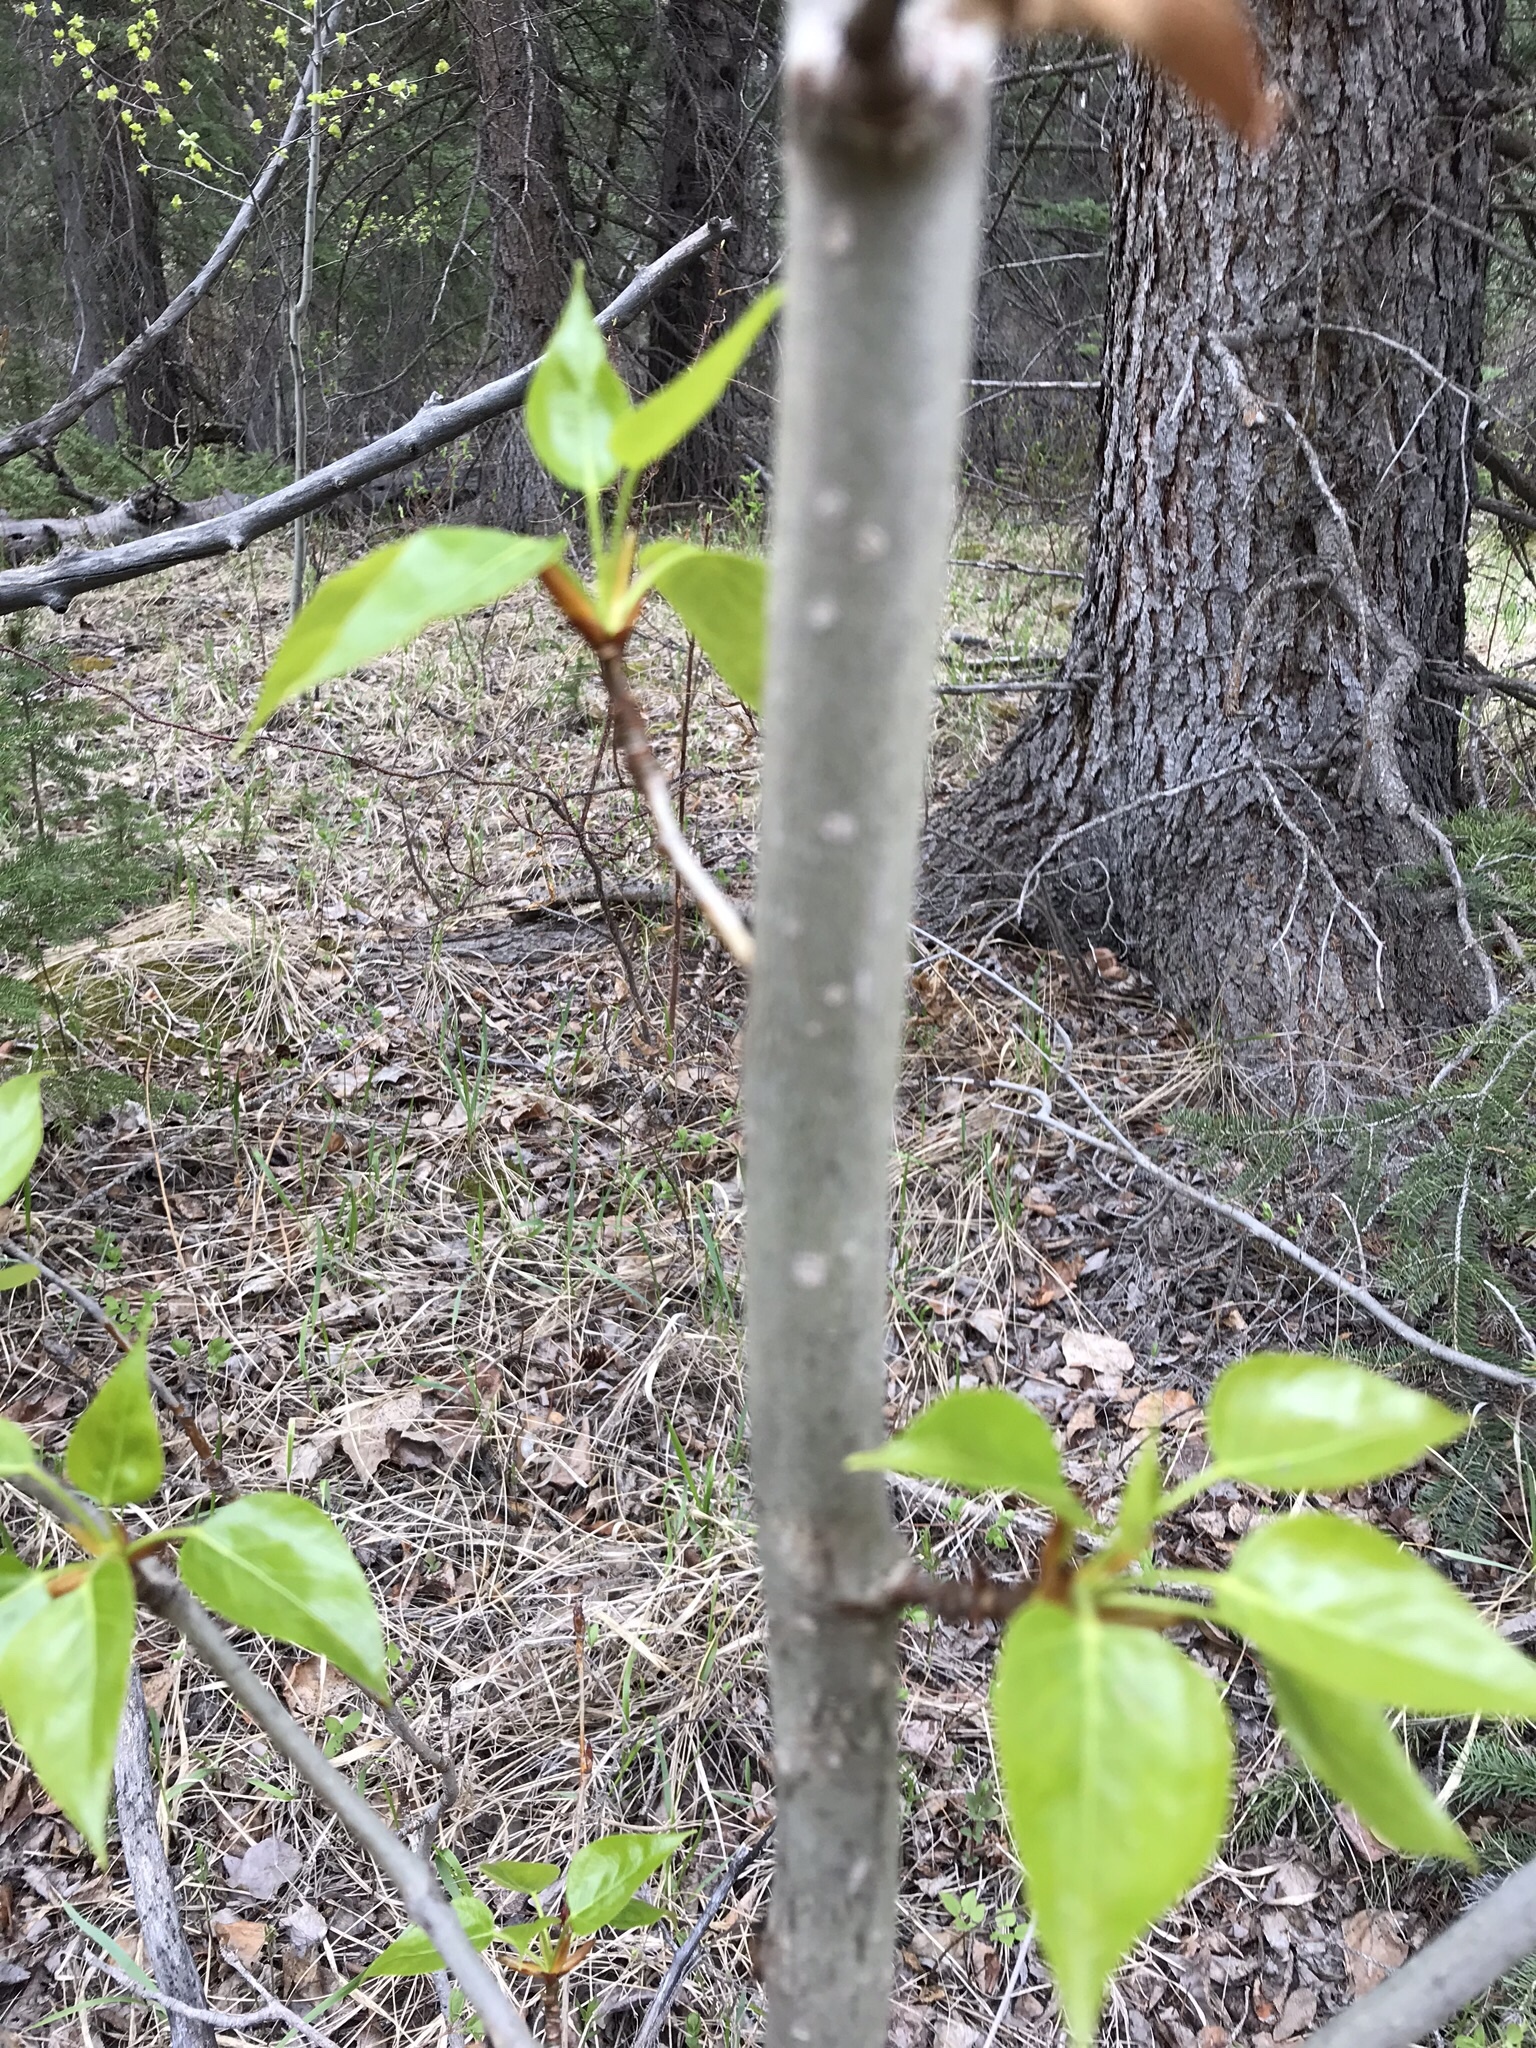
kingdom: Plantae
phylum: Tracheophyta
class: Magnoliopsida
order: Malpighiales
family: Salicaceae
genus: Populus
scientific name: Populus balsamifera
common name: Balsam poplar
